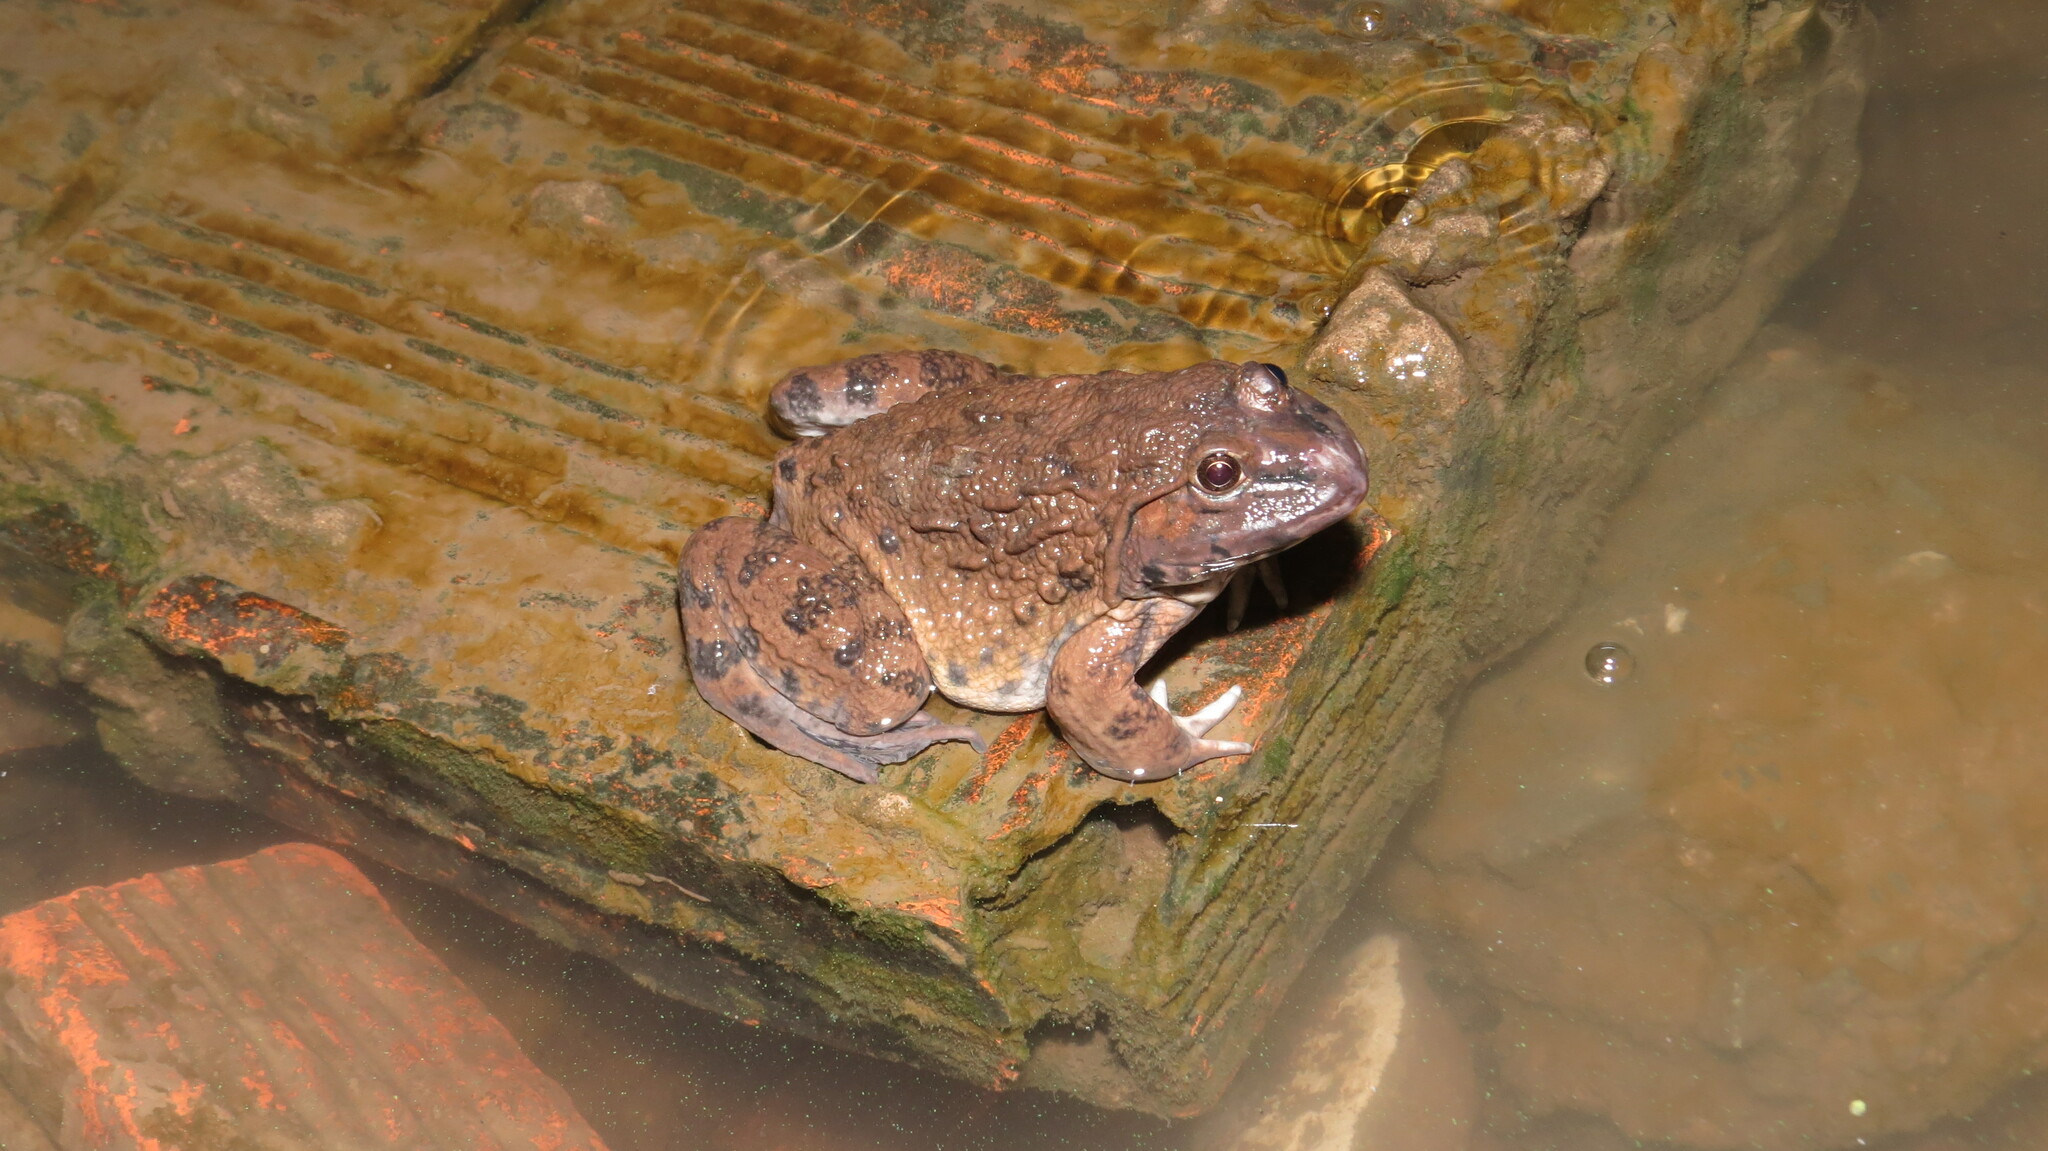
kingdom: Animalia
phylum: Chordata
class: Amphibia
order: Anura
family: Dicroglossidae
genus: Hoplobatrachus
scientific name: Hoplobatrachus rugulosus
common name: Chinese edible frog
